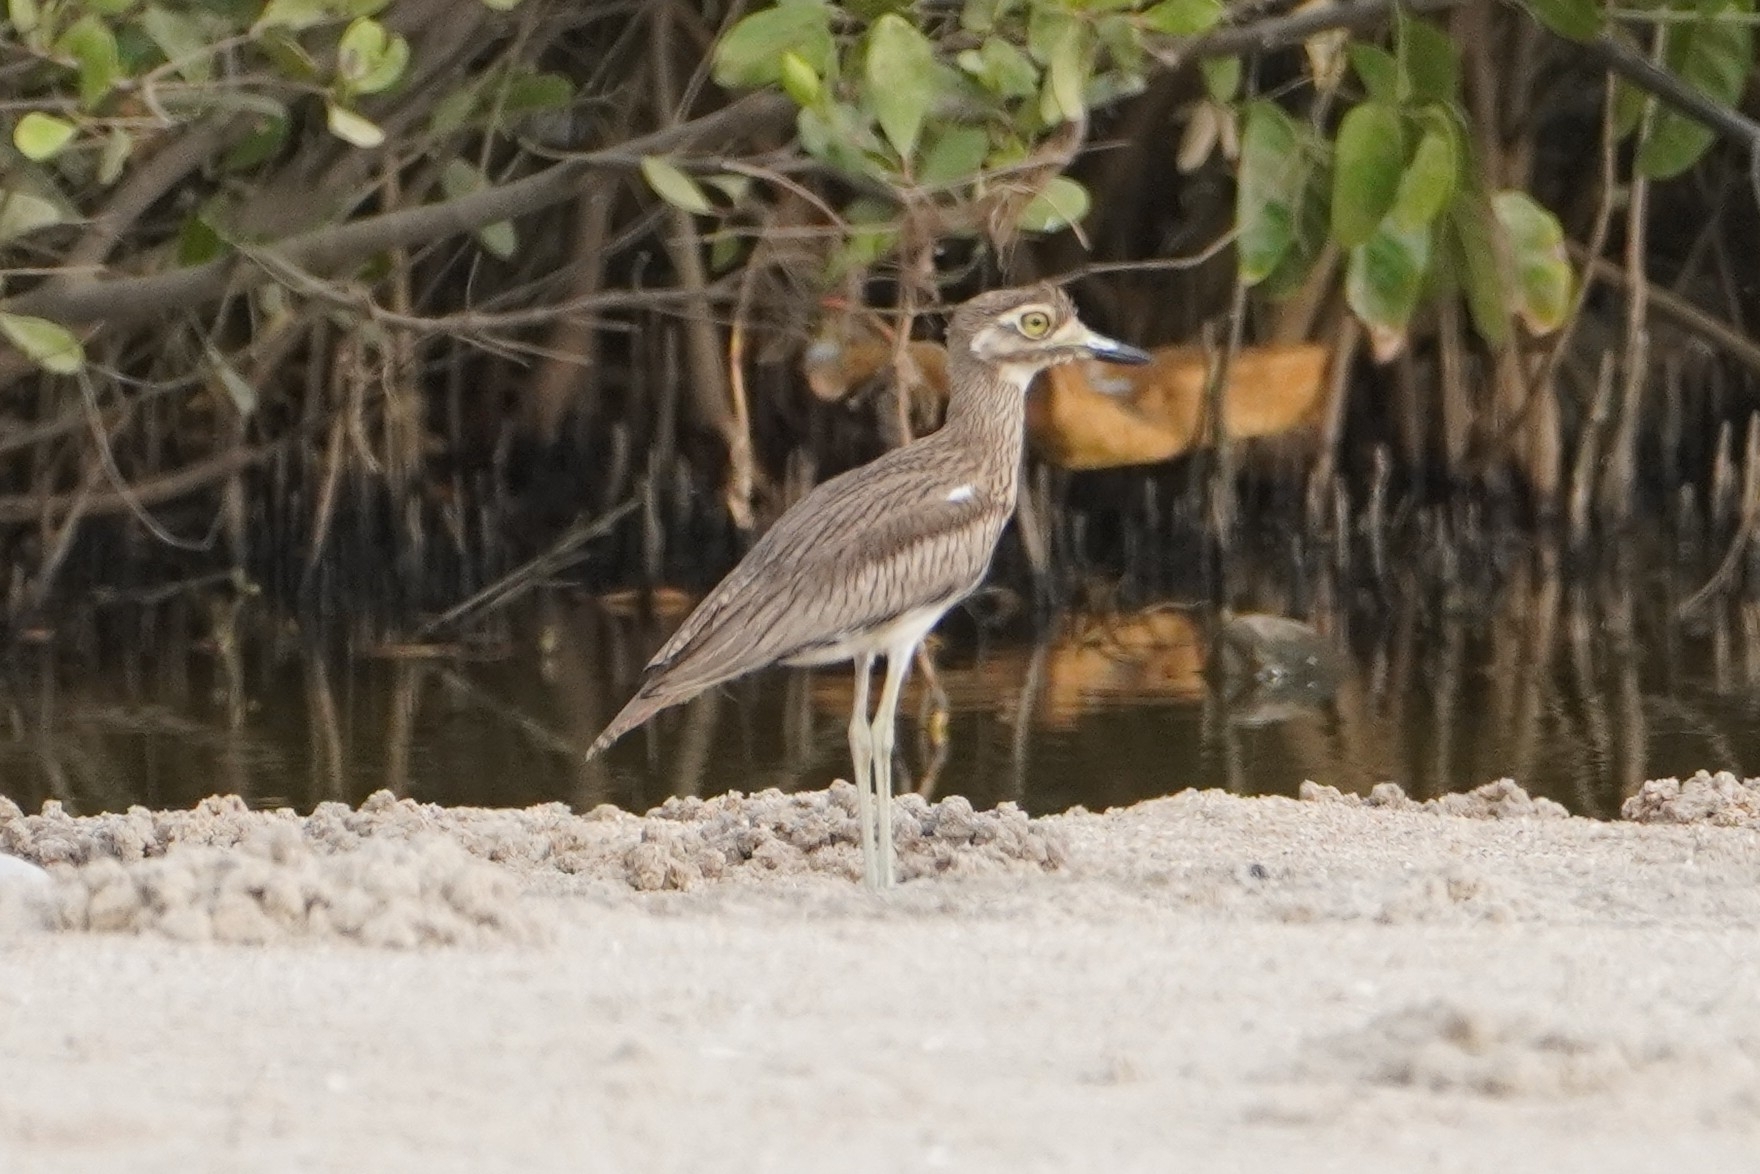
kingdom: Animalia
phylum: Chordata
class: Aves
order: Charadriiformes
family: Burhinidae
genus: Burhinus
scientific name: Burhinus senegalensis
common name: Senegal thick-knee
